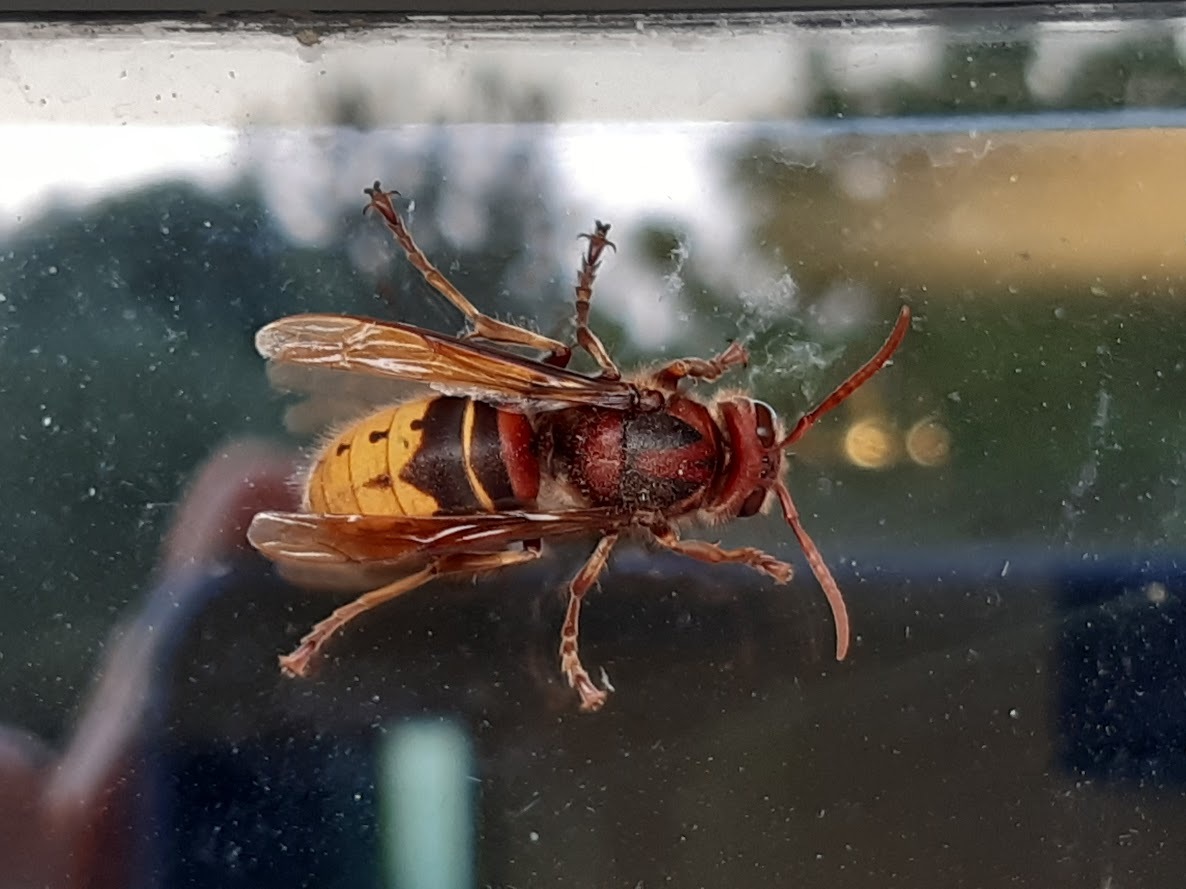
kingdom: Animalia
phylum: Arthropoda
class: Insecta
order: Hymenoptera
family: Vespidae
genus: Vespa
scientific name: Vespa crabro
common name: Hornet
